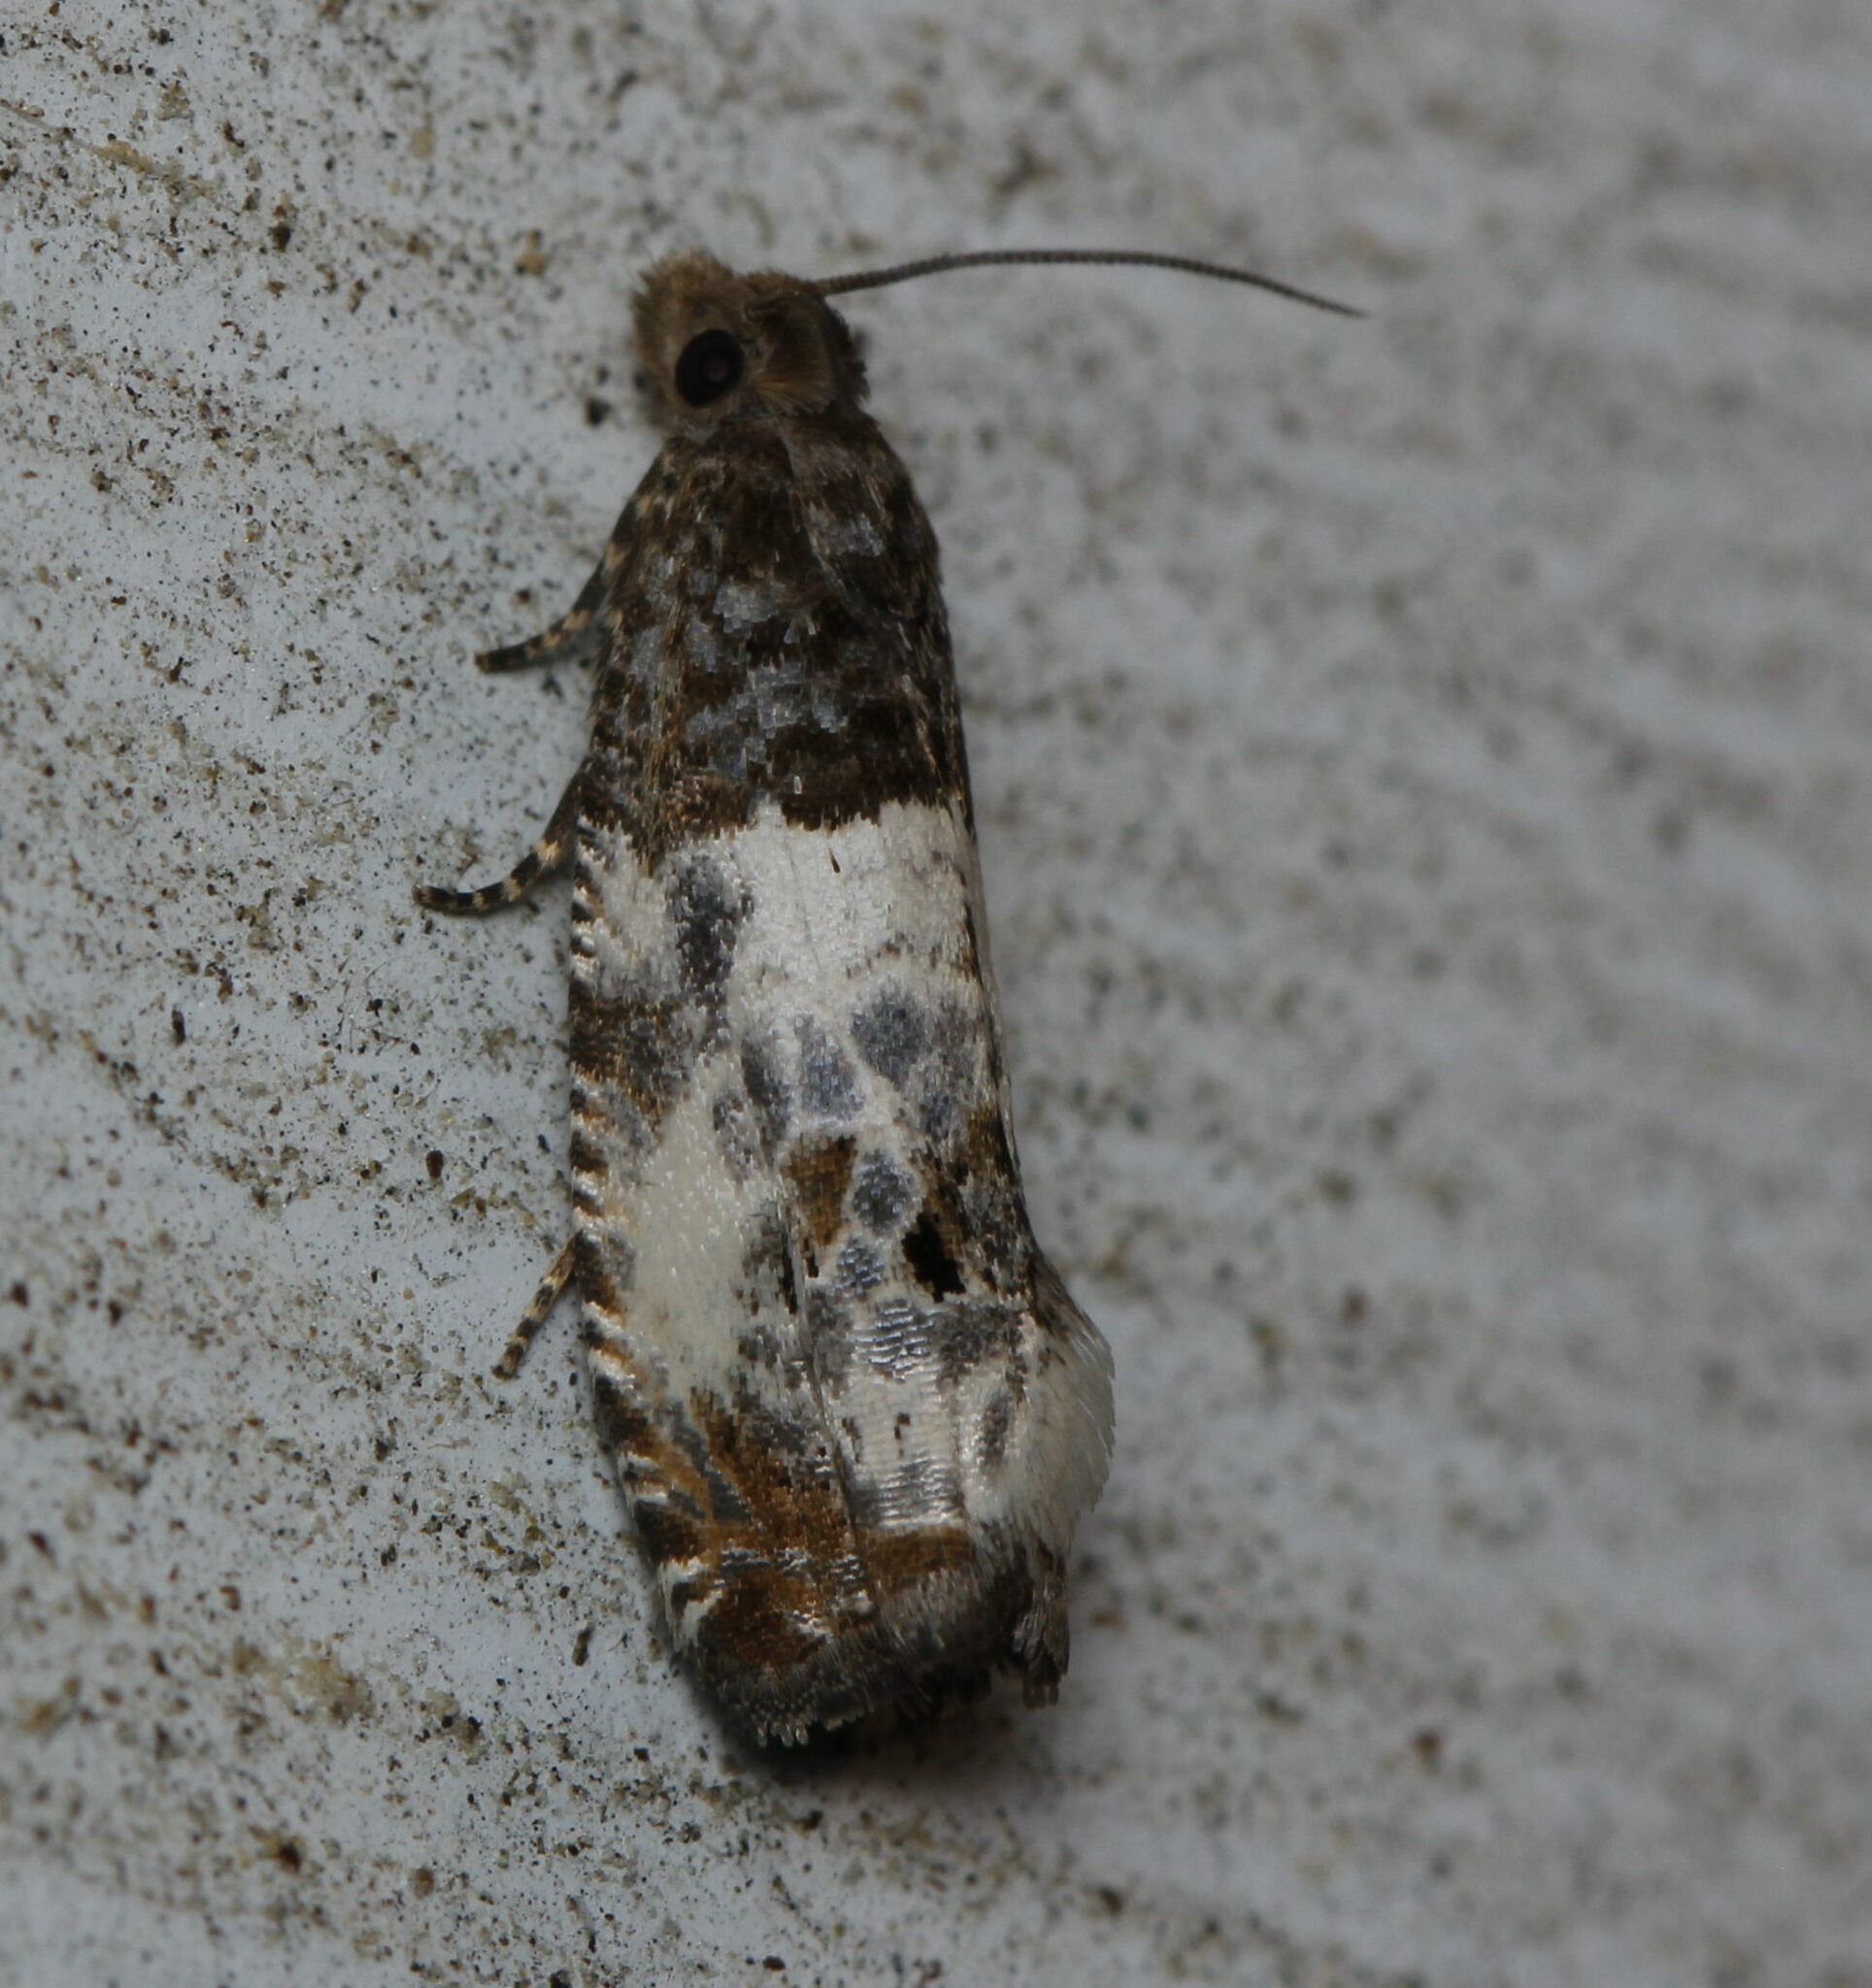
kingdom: Animalia
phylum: Arthropoda
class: Insecta
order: Lepidoptera
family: Tortricidae
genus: Notocelia
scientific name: Notocelia rosaecolana
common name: Common rose bell
